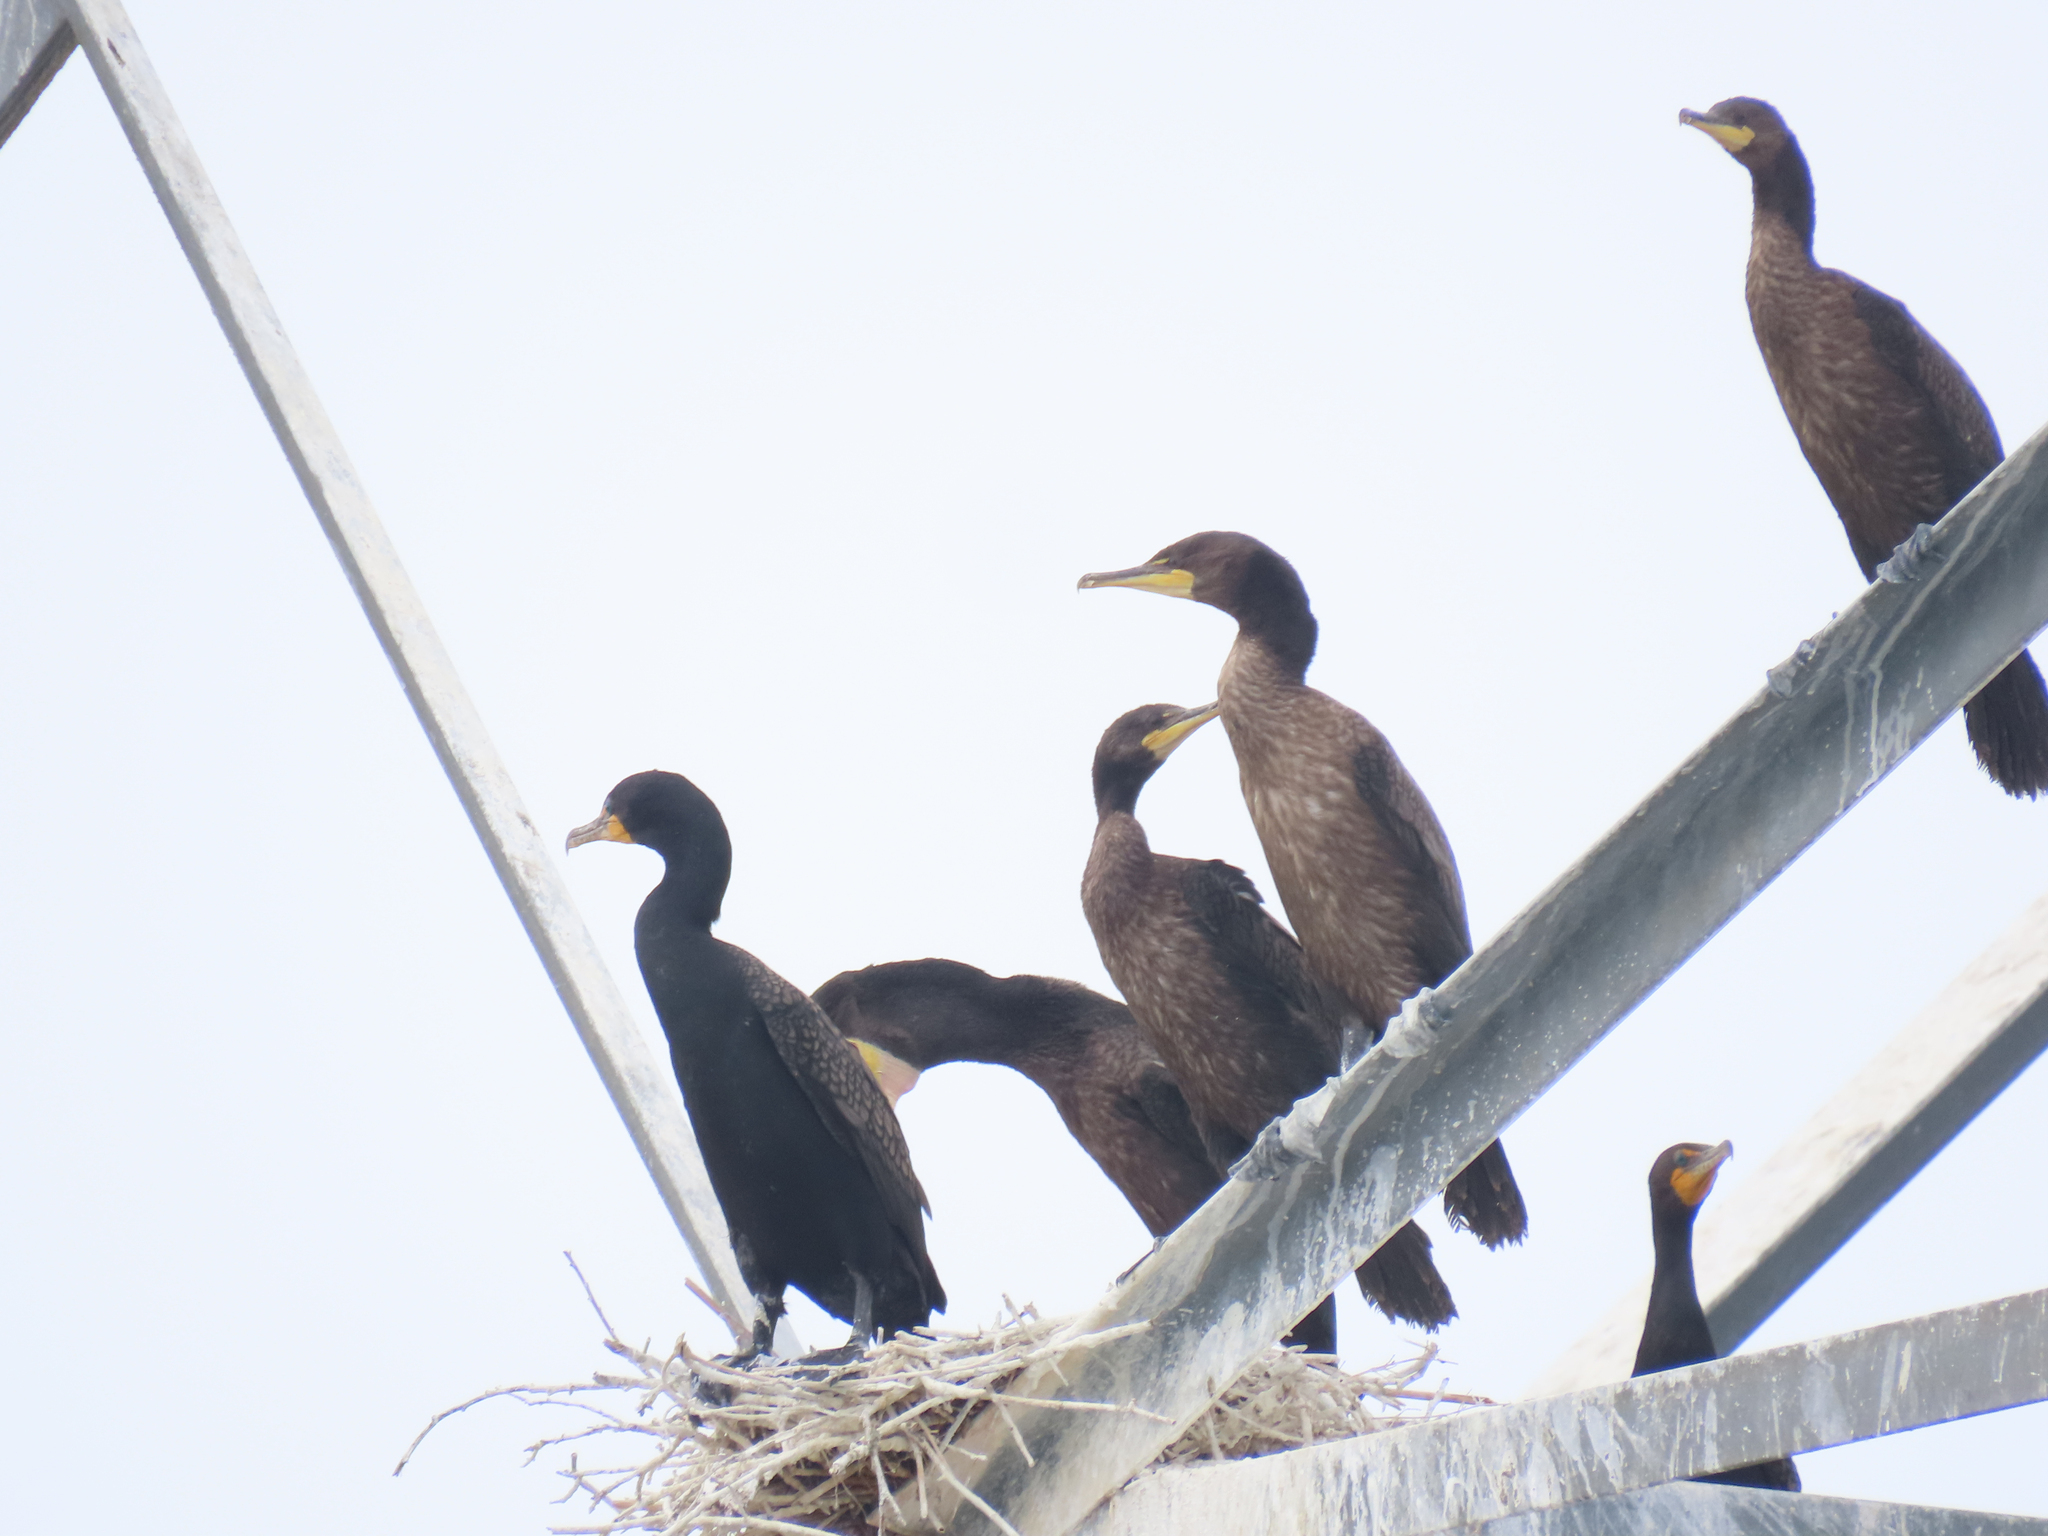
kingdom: Animalia
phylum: Chordata
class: Aves
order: Suliformes
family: Phalacrocoracidae
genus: Phalacrocorax
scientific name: Phalacrocorax auritus
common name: Double-crested cormorant
